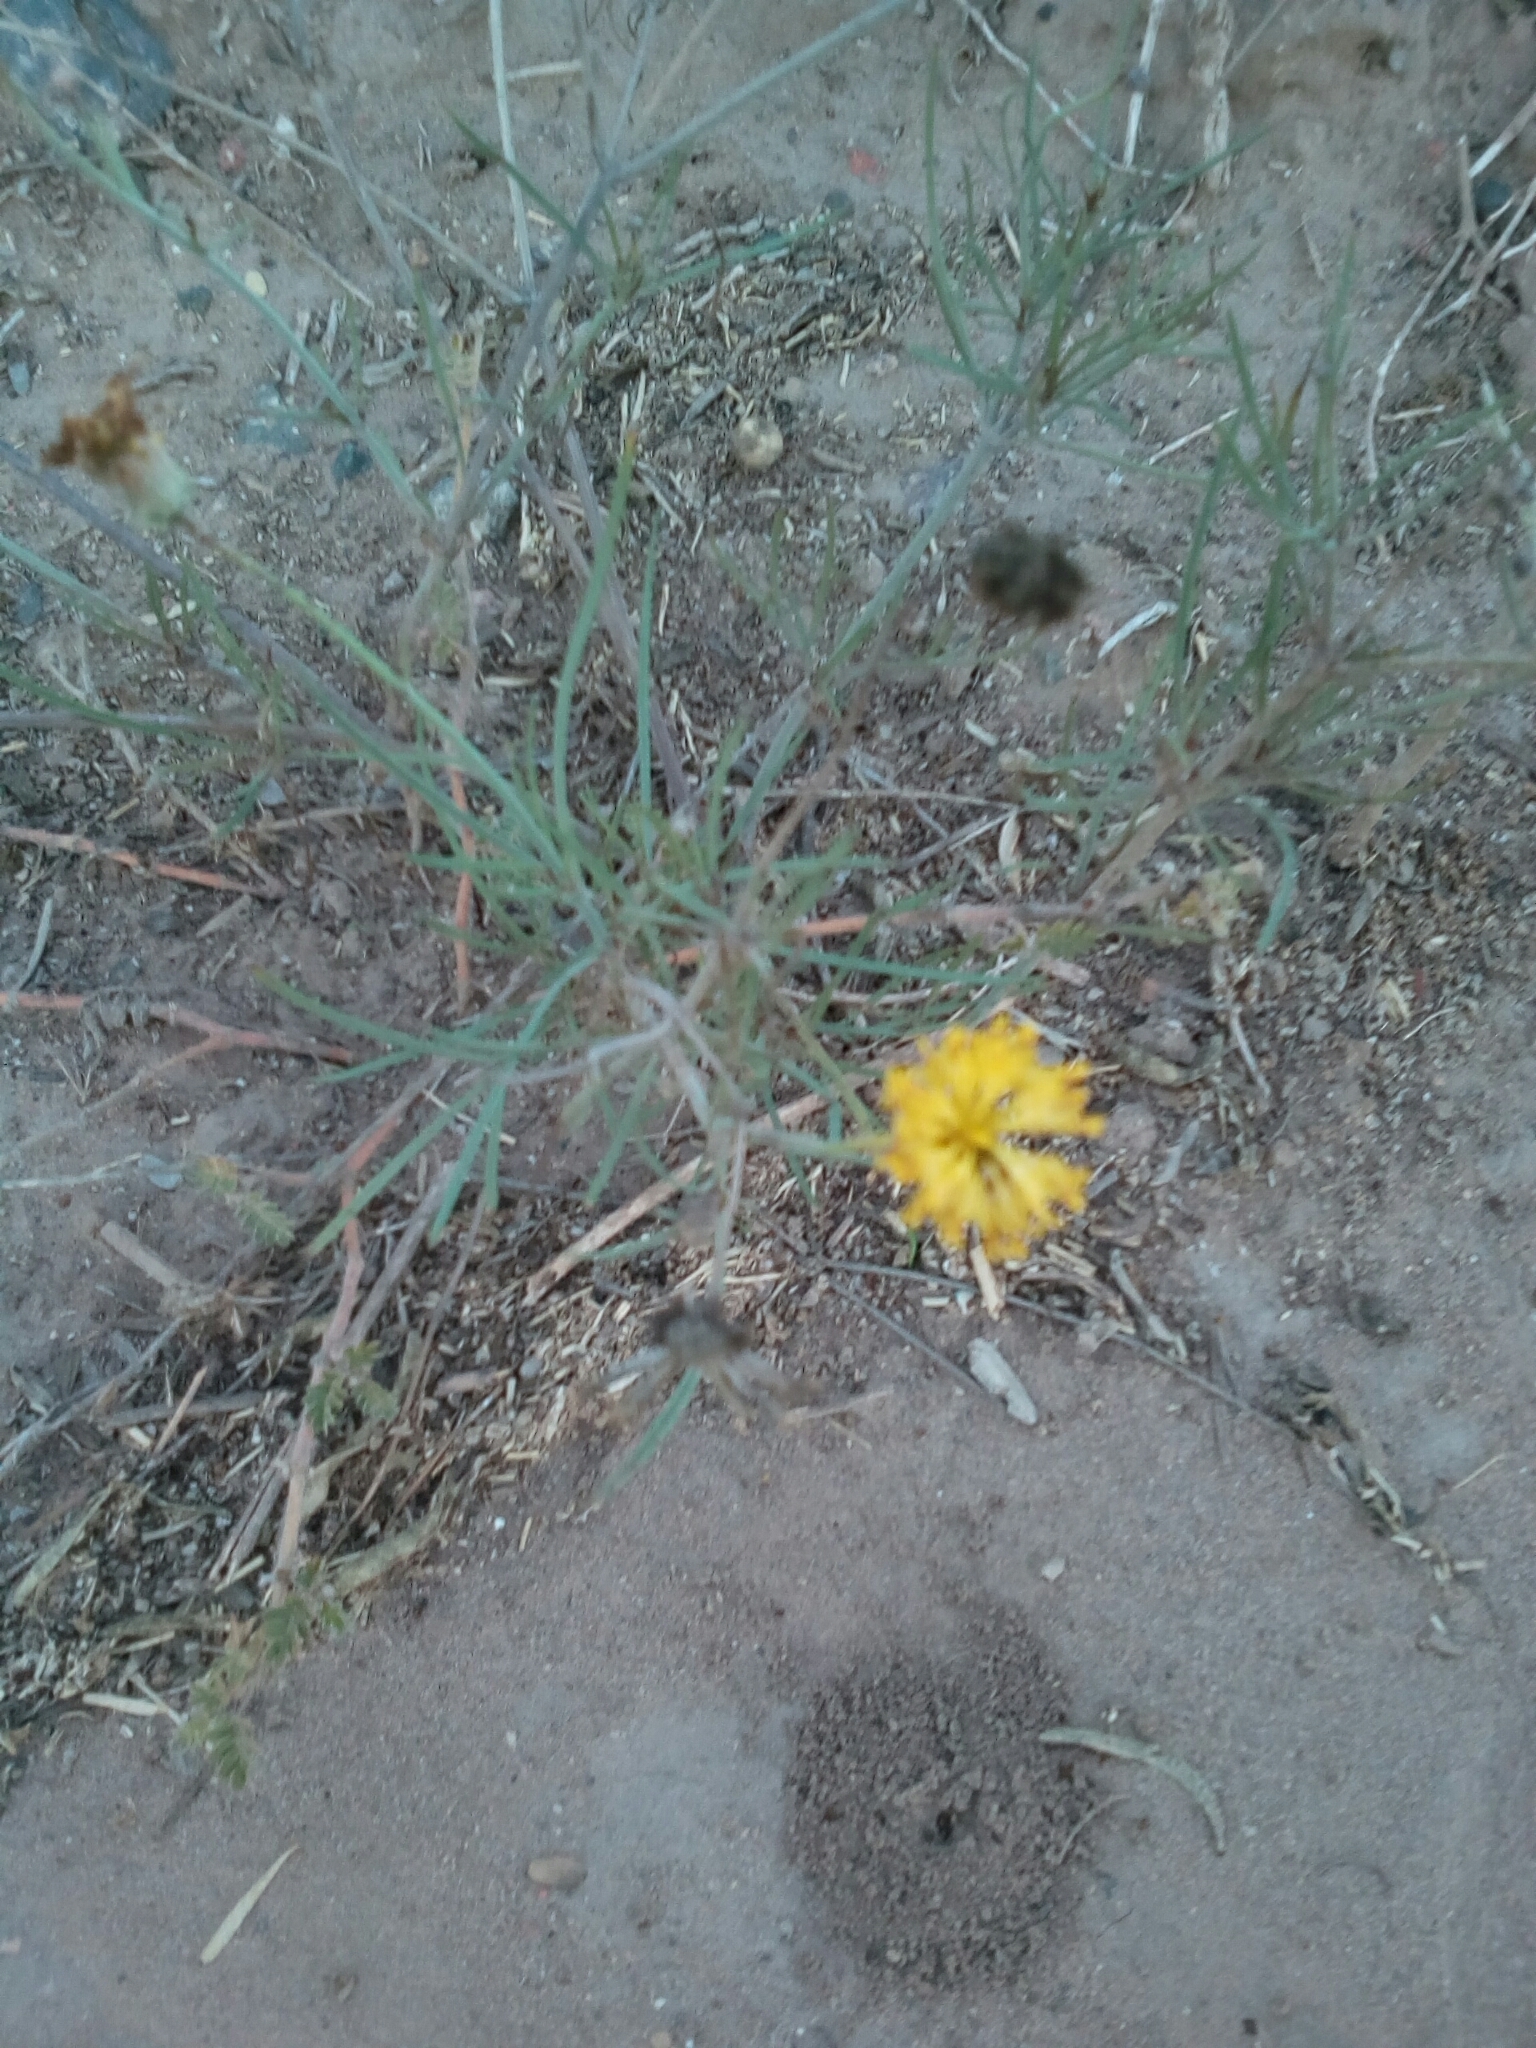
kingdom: Plantae
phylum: Tracheophyta
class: Magnoliopsida
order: Asterales
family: Asteraceae
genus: Thelesperma
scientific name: Thelesperma megapotamicum
